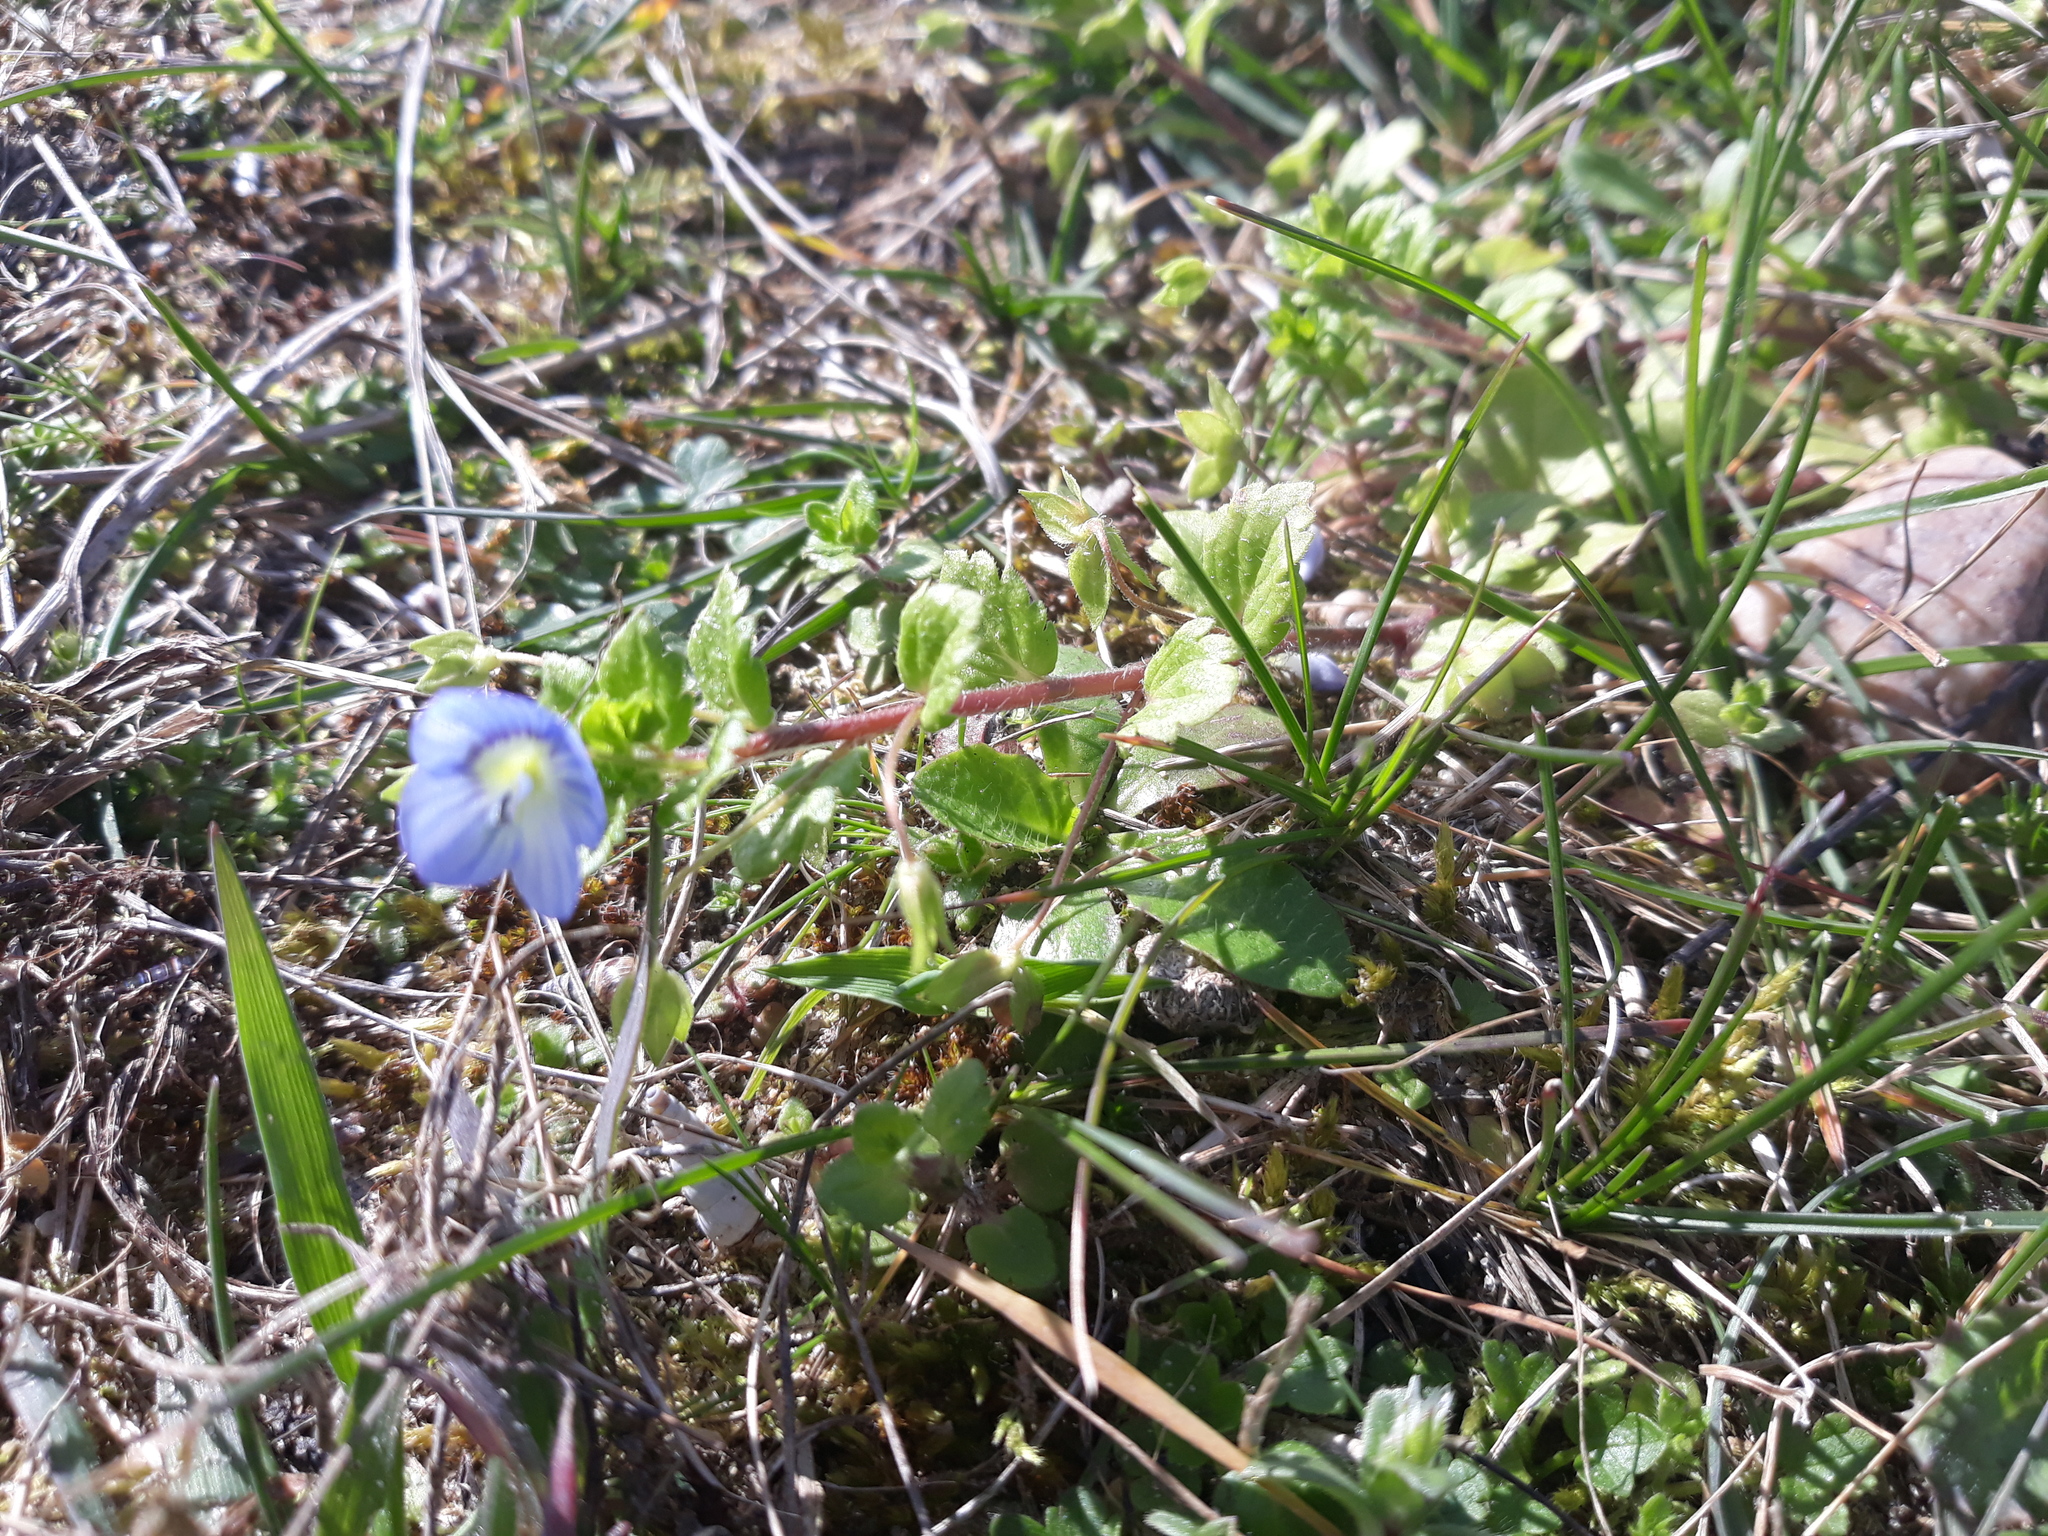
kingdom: Plantae
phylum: Tracheophyta
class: Magnoliopsida
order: Lamiales
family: Plantaginaceae
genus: Veronica
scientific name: Veronica persica
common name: Common field-speedwell
